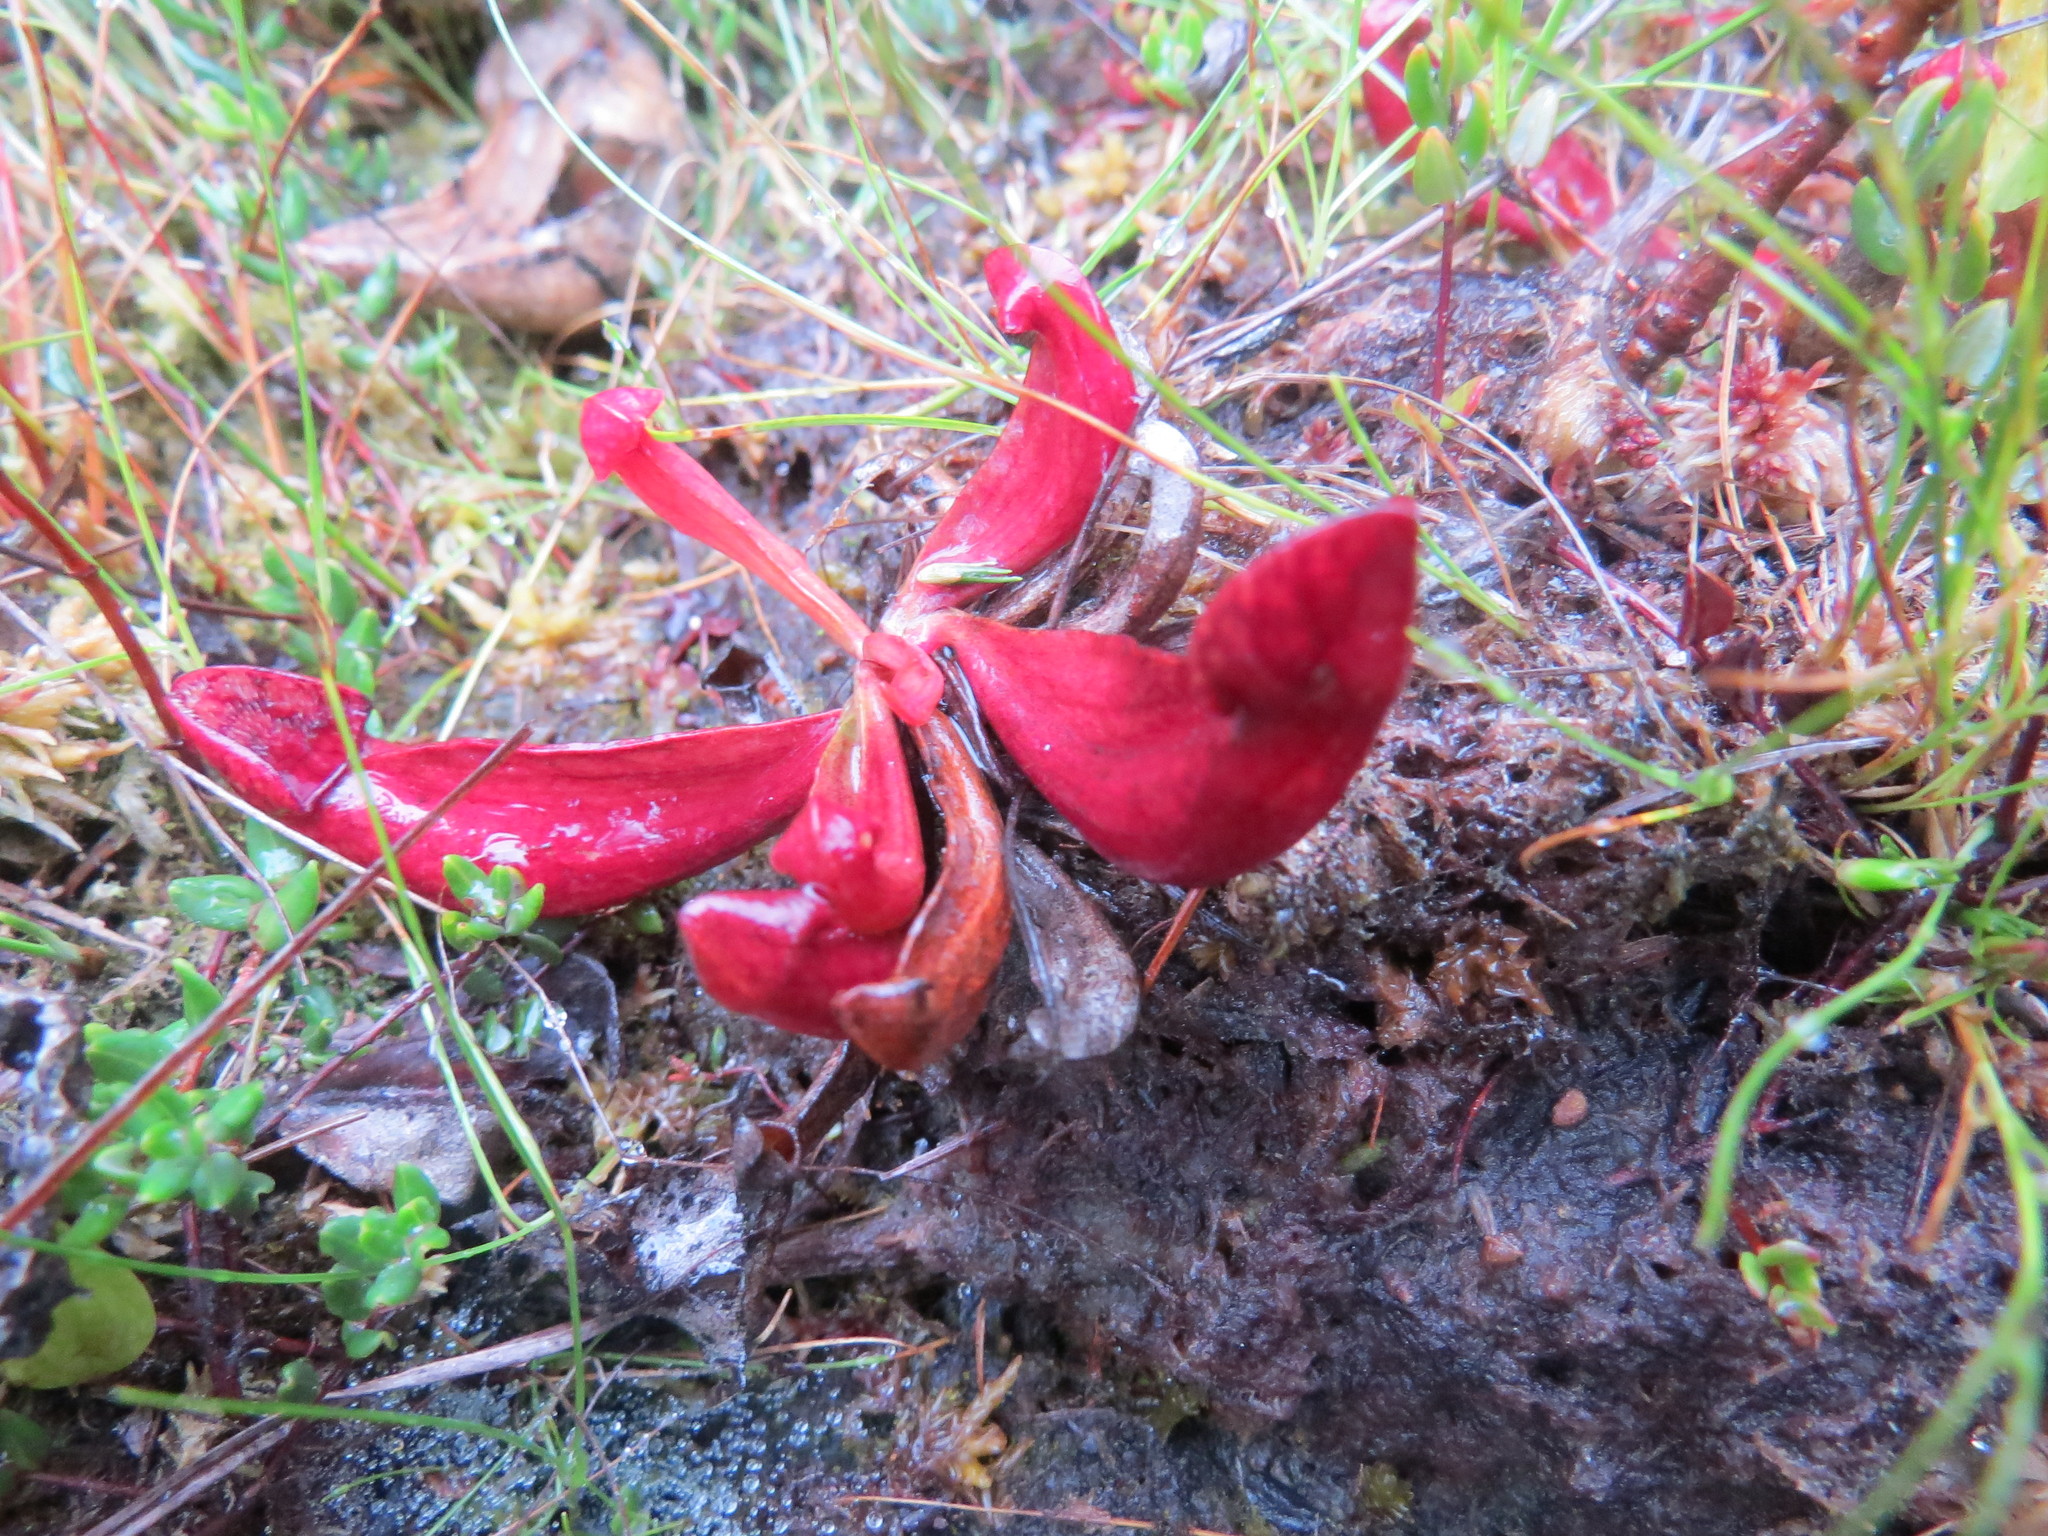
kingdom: Plantae
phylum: Tracheophyta
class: Magnoliopsida
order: Ericales
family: Sarraceniaceae
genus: Sarracenia
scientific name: Sarracenia purpurea
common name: Pitcherplant
